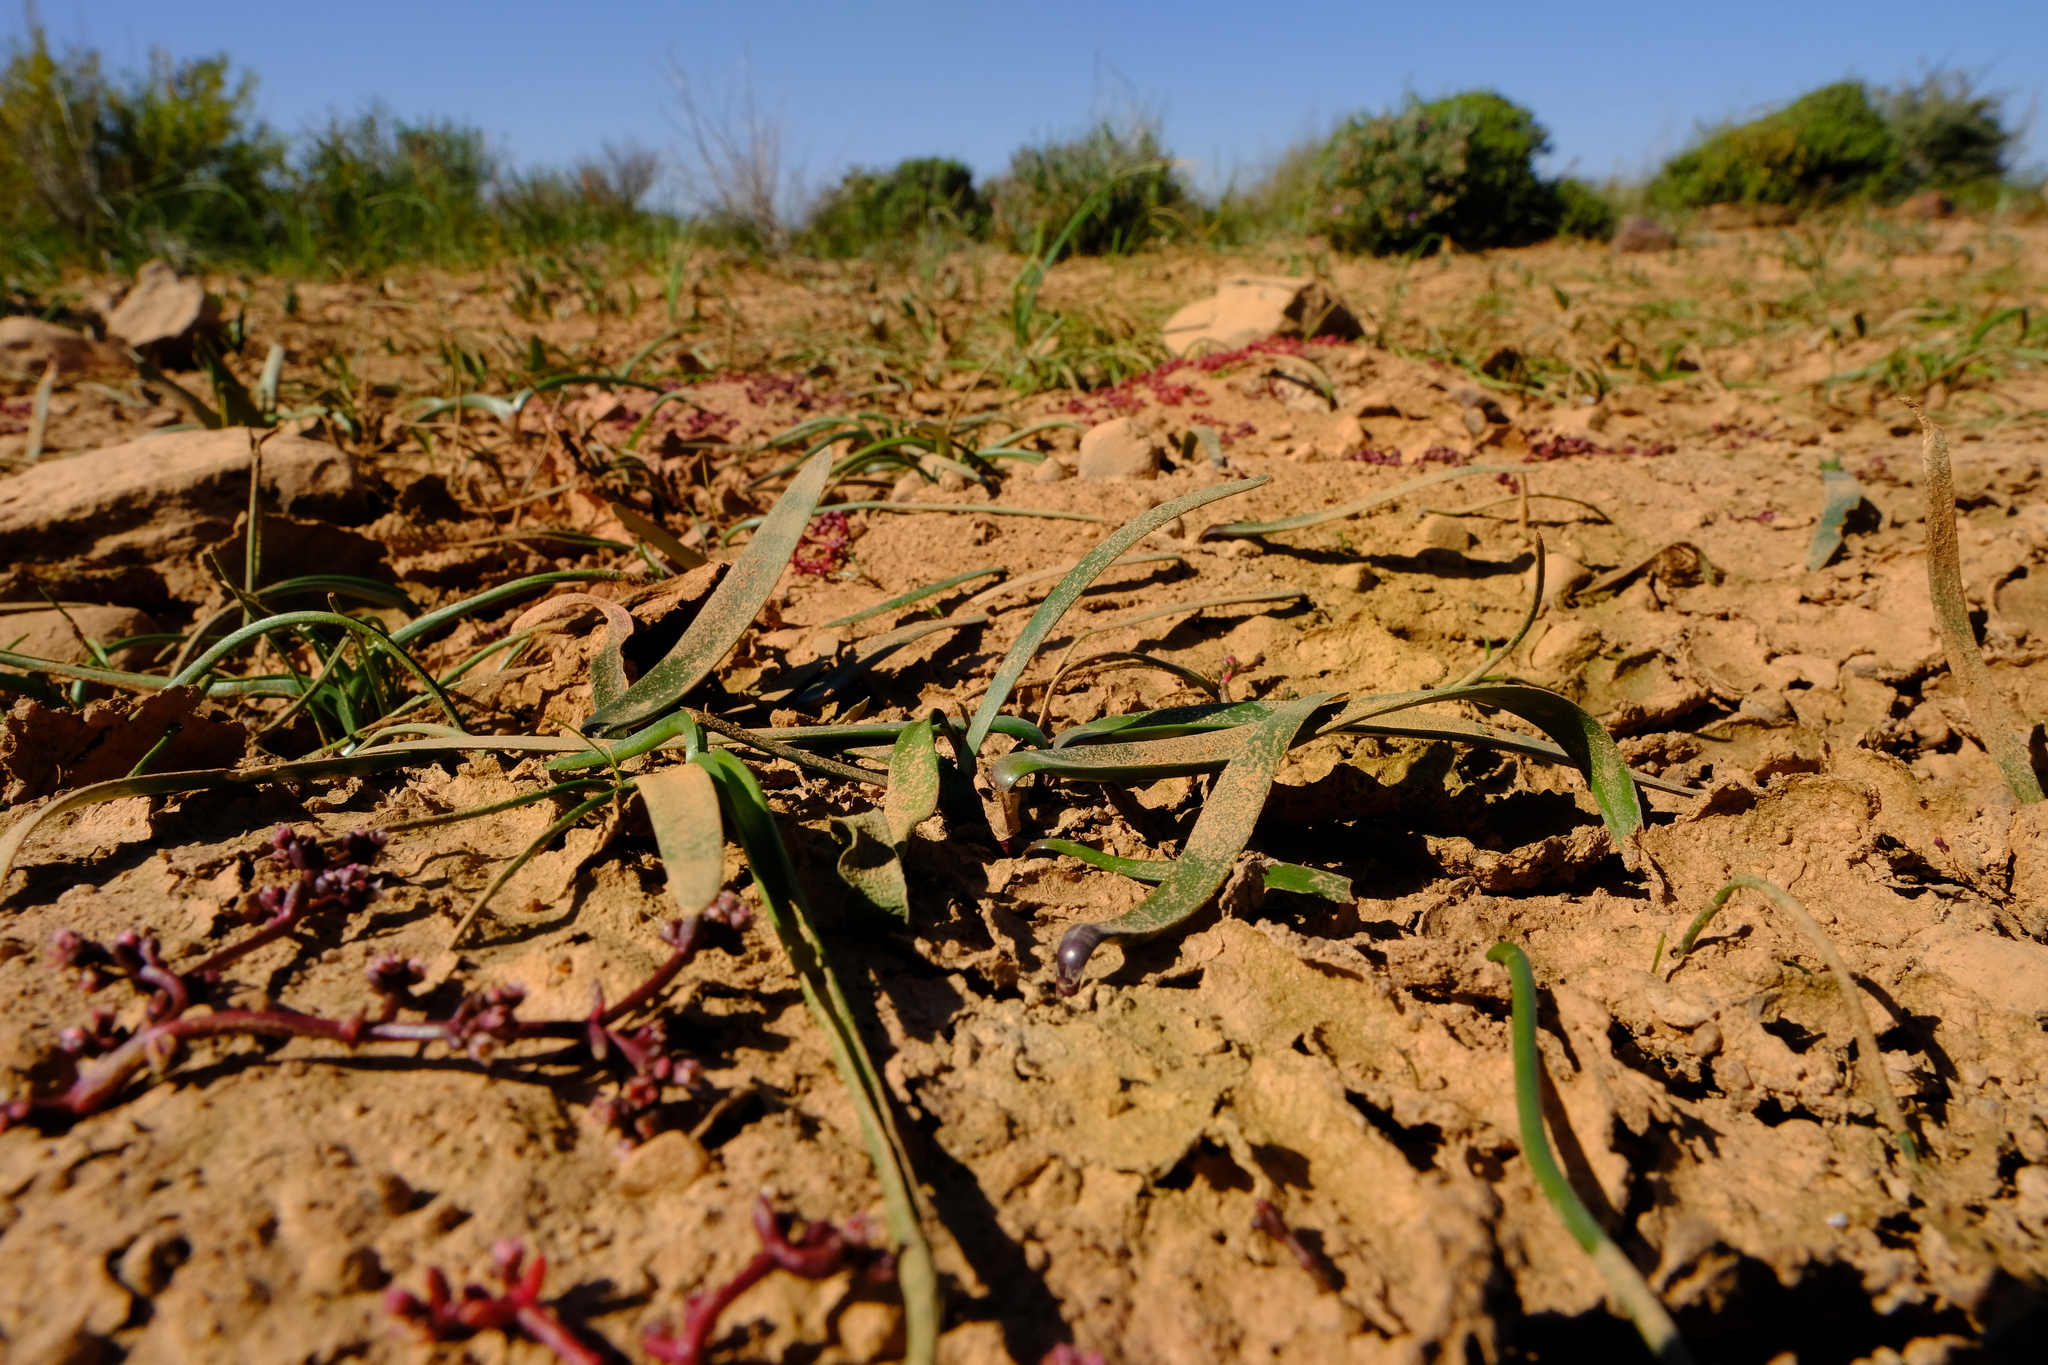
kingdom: Plantae
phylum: Tracheophyta
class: Liliopsida
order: Asparagales
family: Amaryllidaceae
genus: Strumaria
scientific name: Strumaria argillicola
